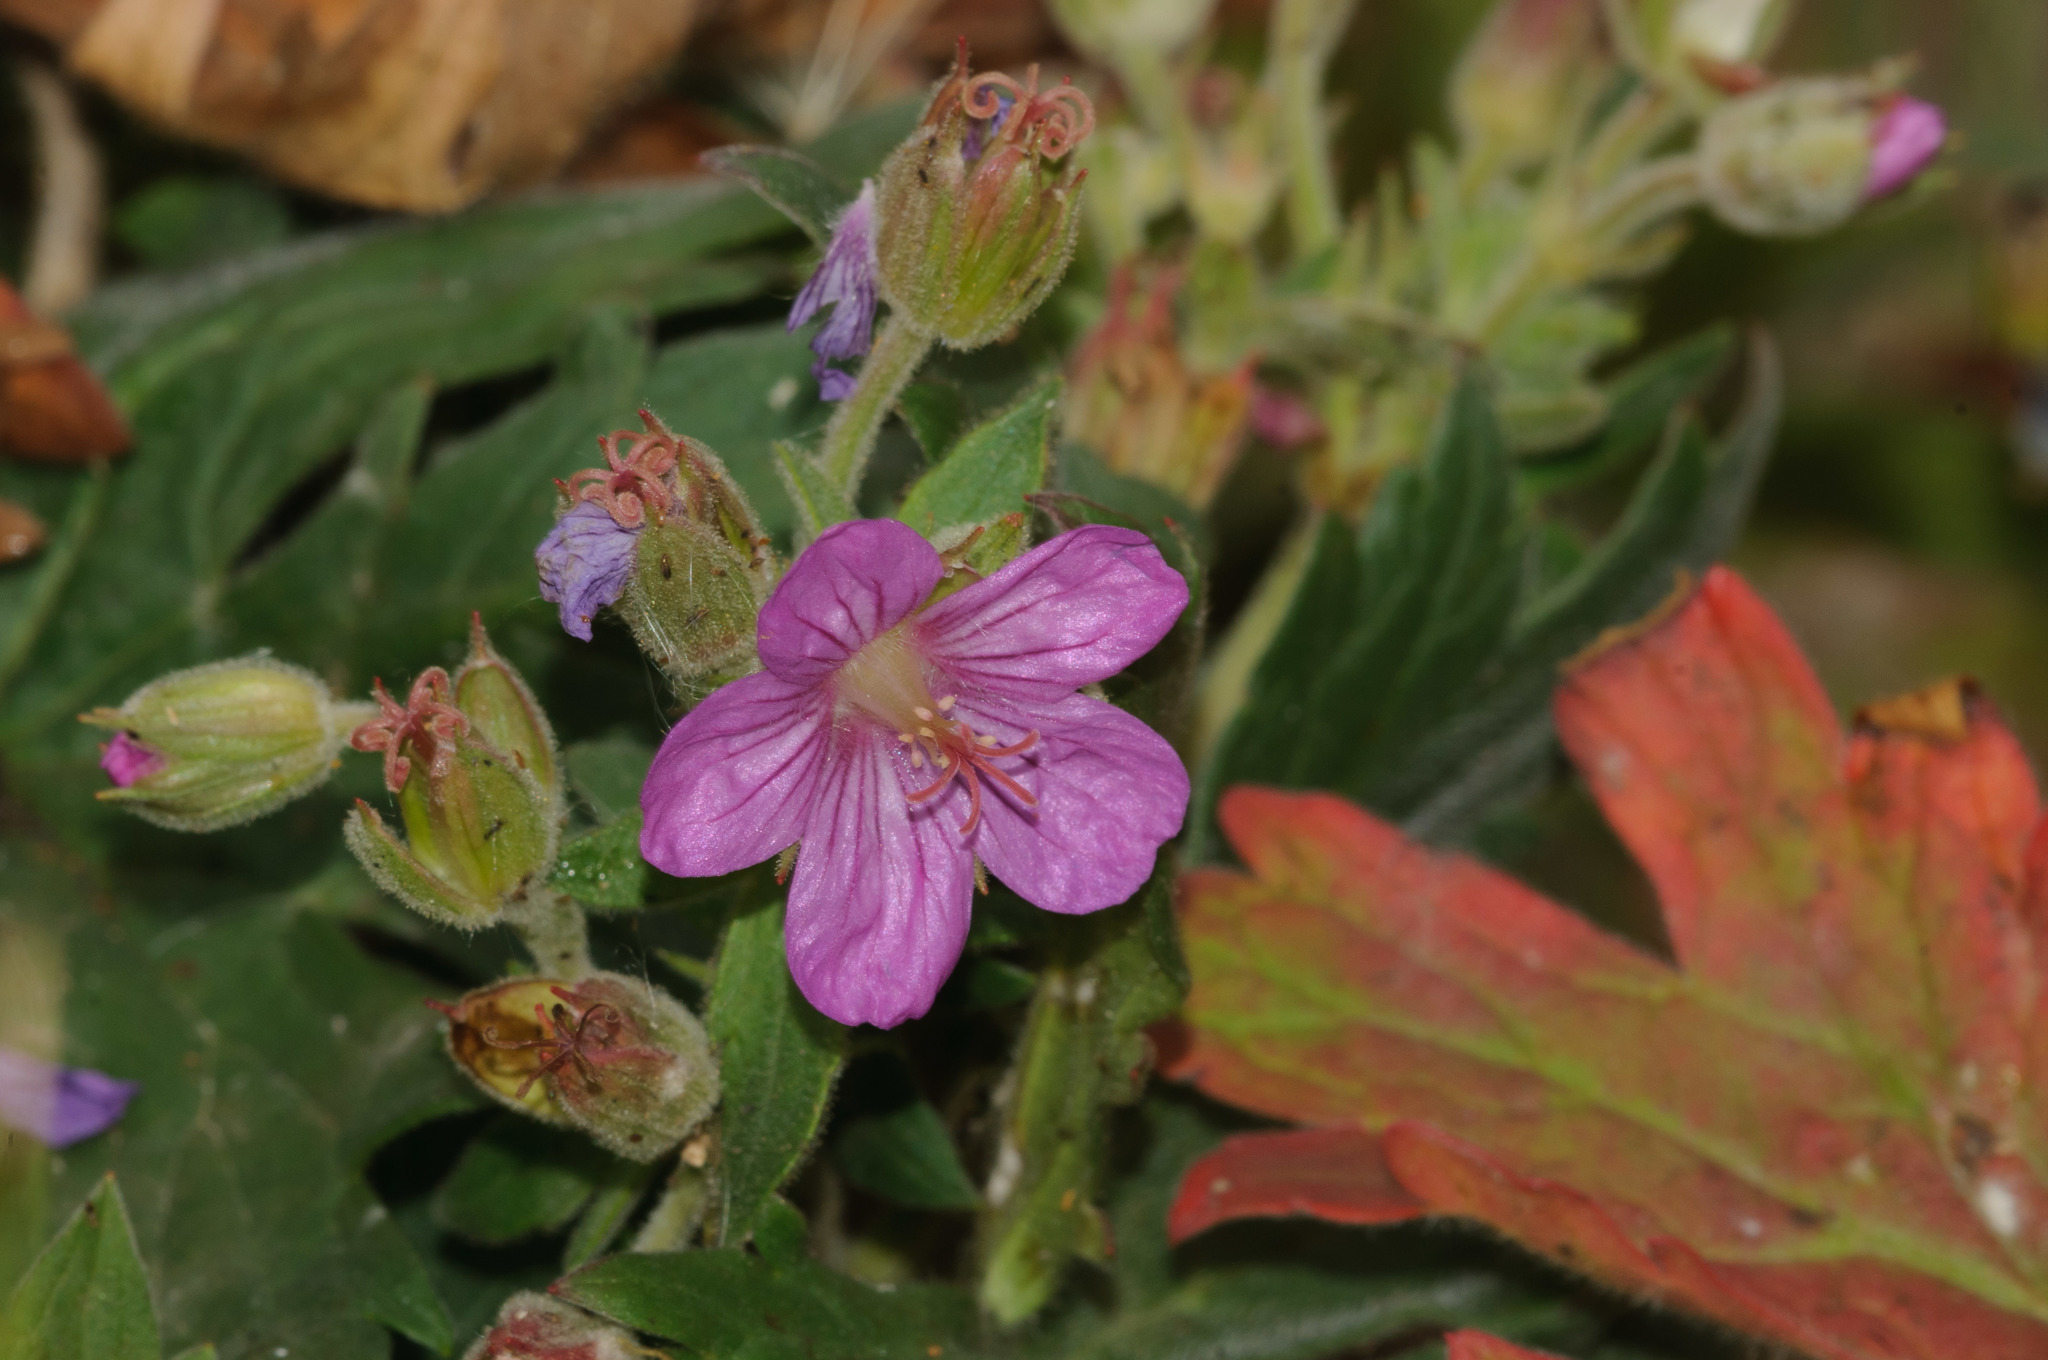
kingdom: Plantae
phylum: Tracheophyta
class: Magnoliopsida
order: Geraniales
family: Geraniaceae
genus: Geranium
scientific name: Geranium viscosissimum
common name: Purple geranium
